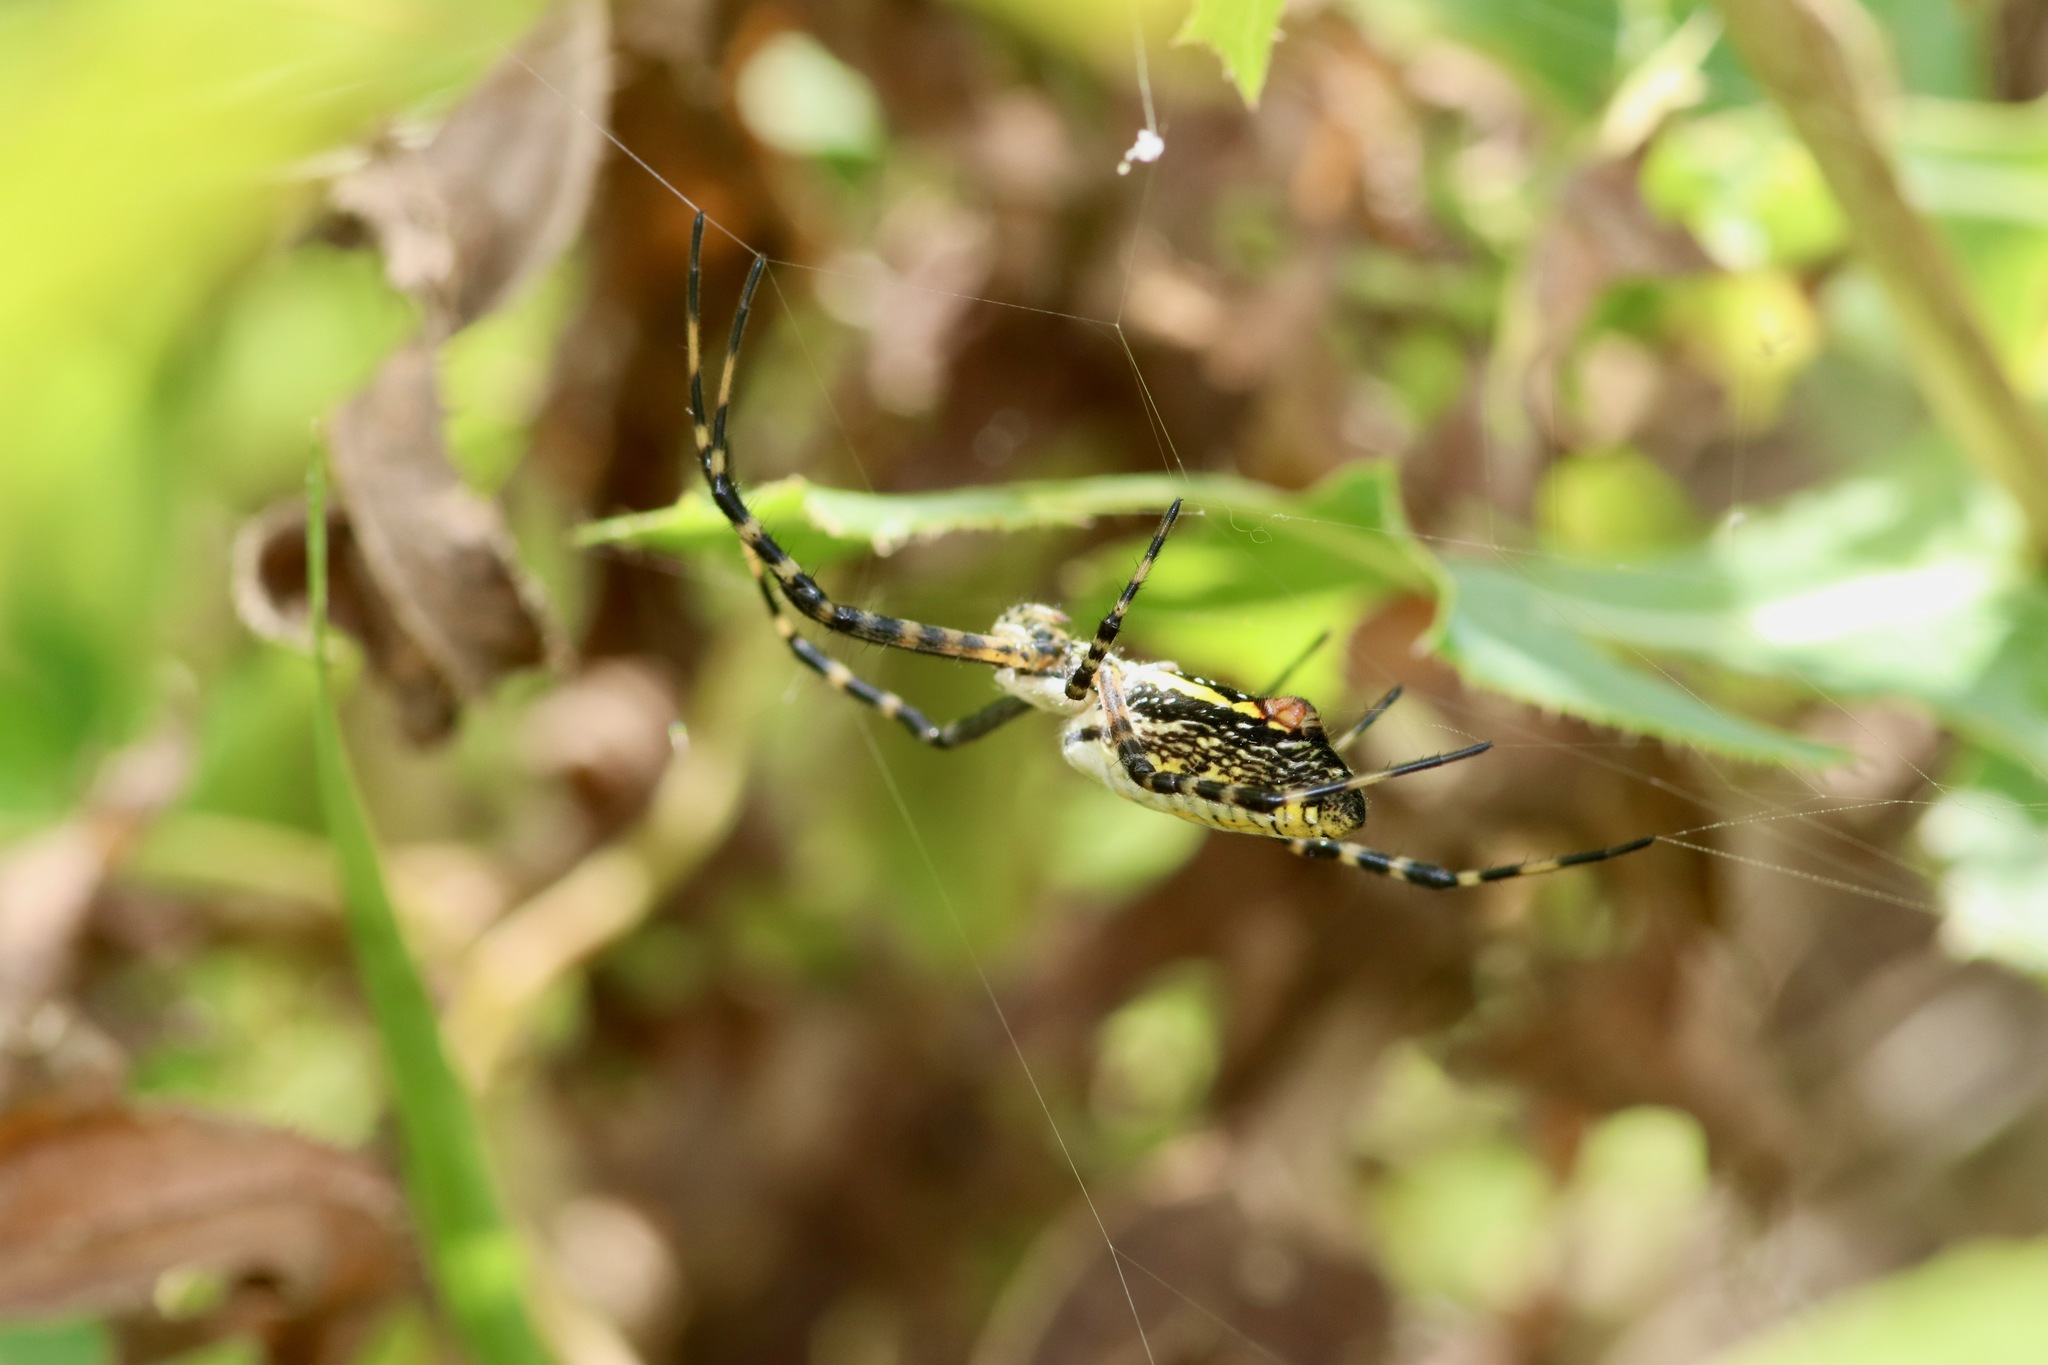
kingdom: Animalia
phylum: Arthropoda
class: Arachnida
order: Araneae
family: Araneidae
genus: Argiope
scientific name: Argiope trifasciata
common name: Banded garden spider
